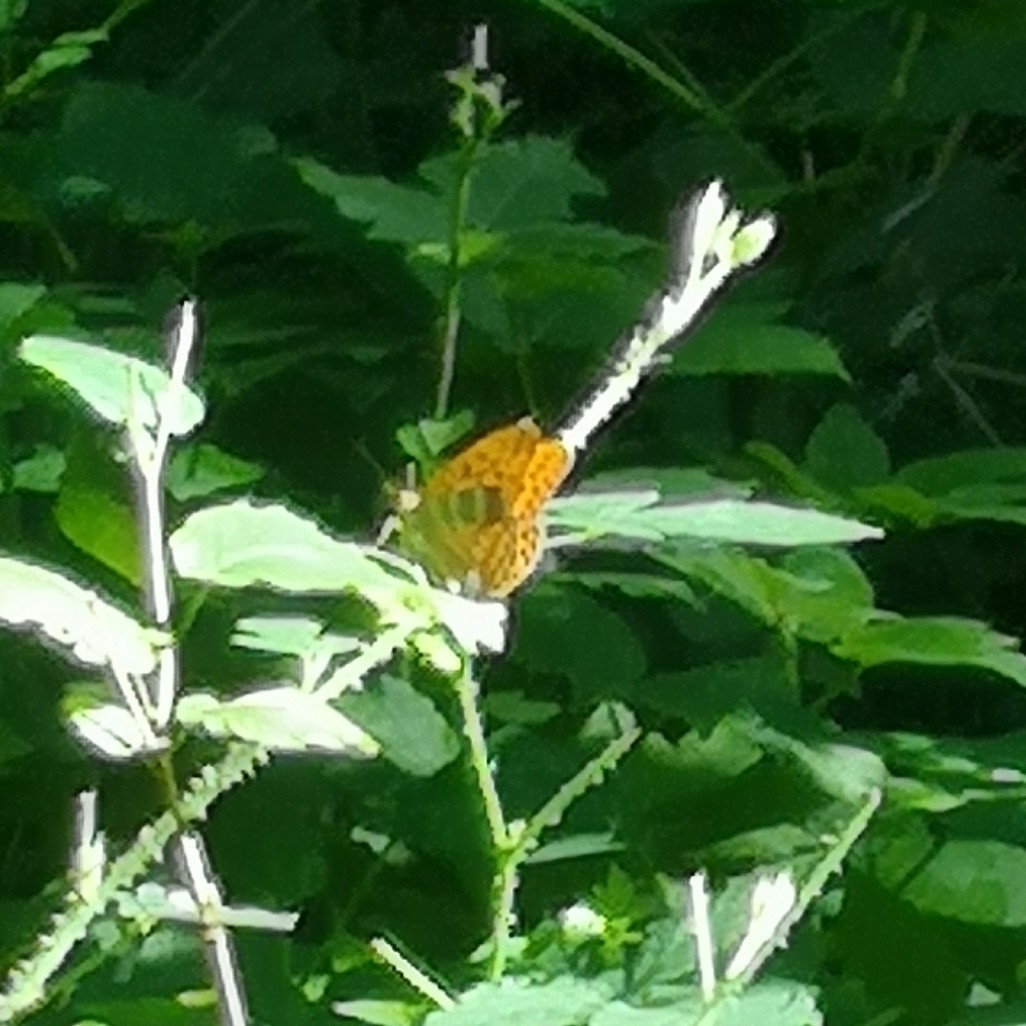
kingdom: Animalia
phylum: Arthropoda
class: Insecta
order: Lepidoptera
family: Nymphalidae
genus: Argynnis
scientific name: Argynnis paphia
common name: Silver-washed fritillary
